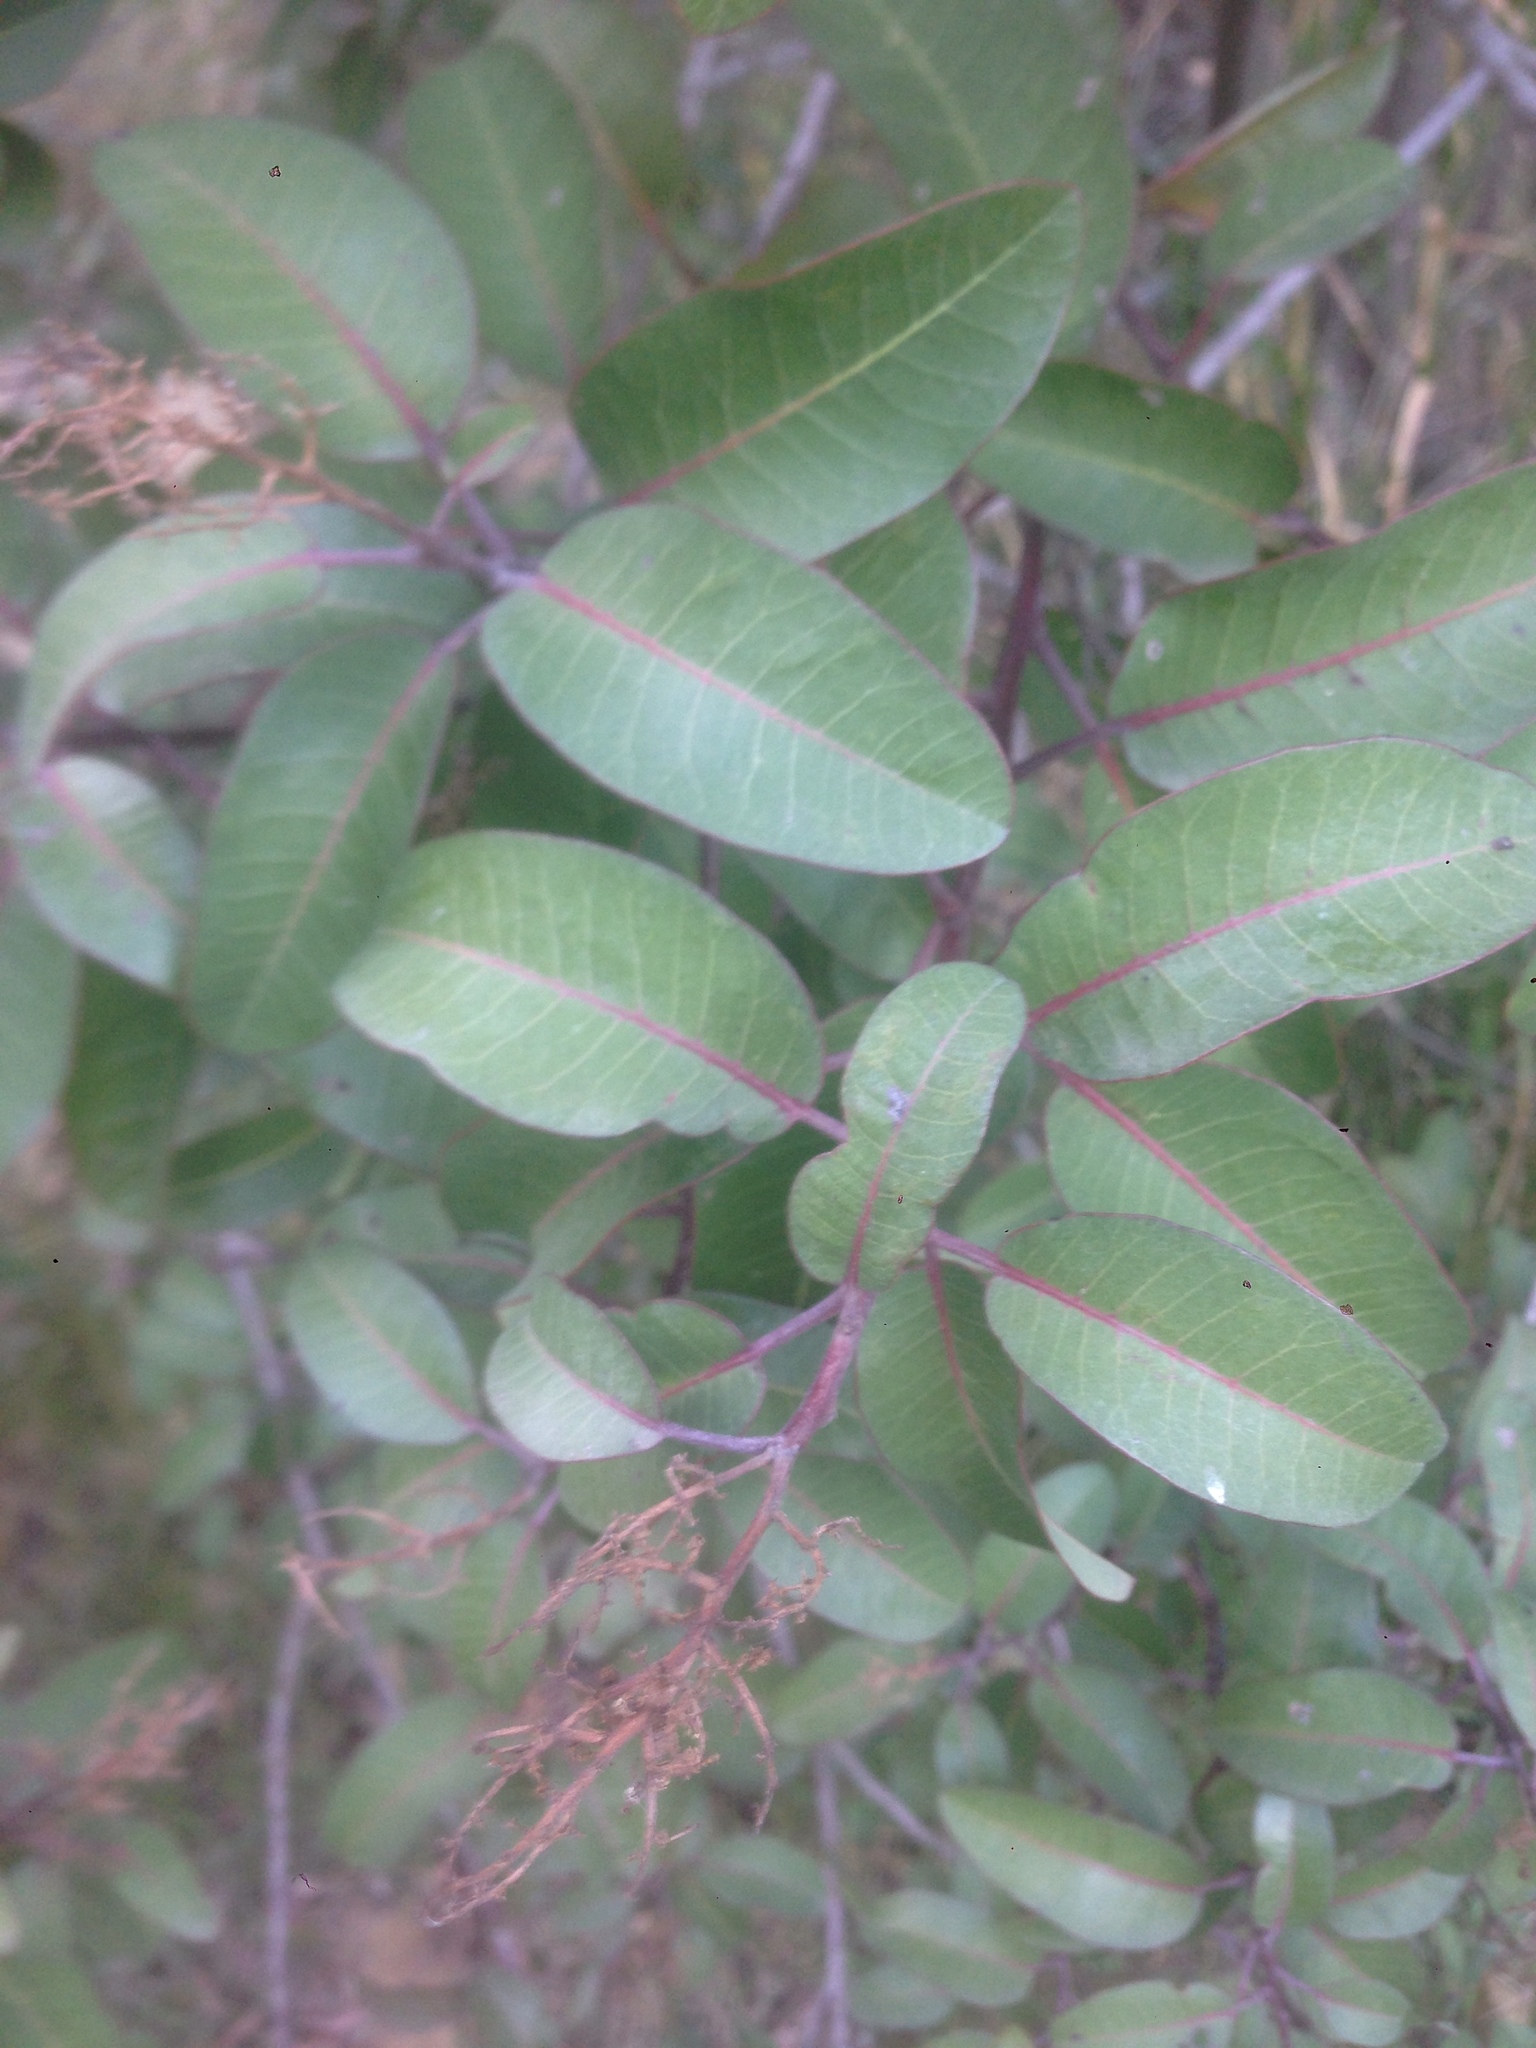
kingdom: Plantae
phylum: Tracheophyta
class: Magnoliopsida
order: Sapindales
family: Anacardiaceae
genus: Malosma
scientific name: Malosma laurina
